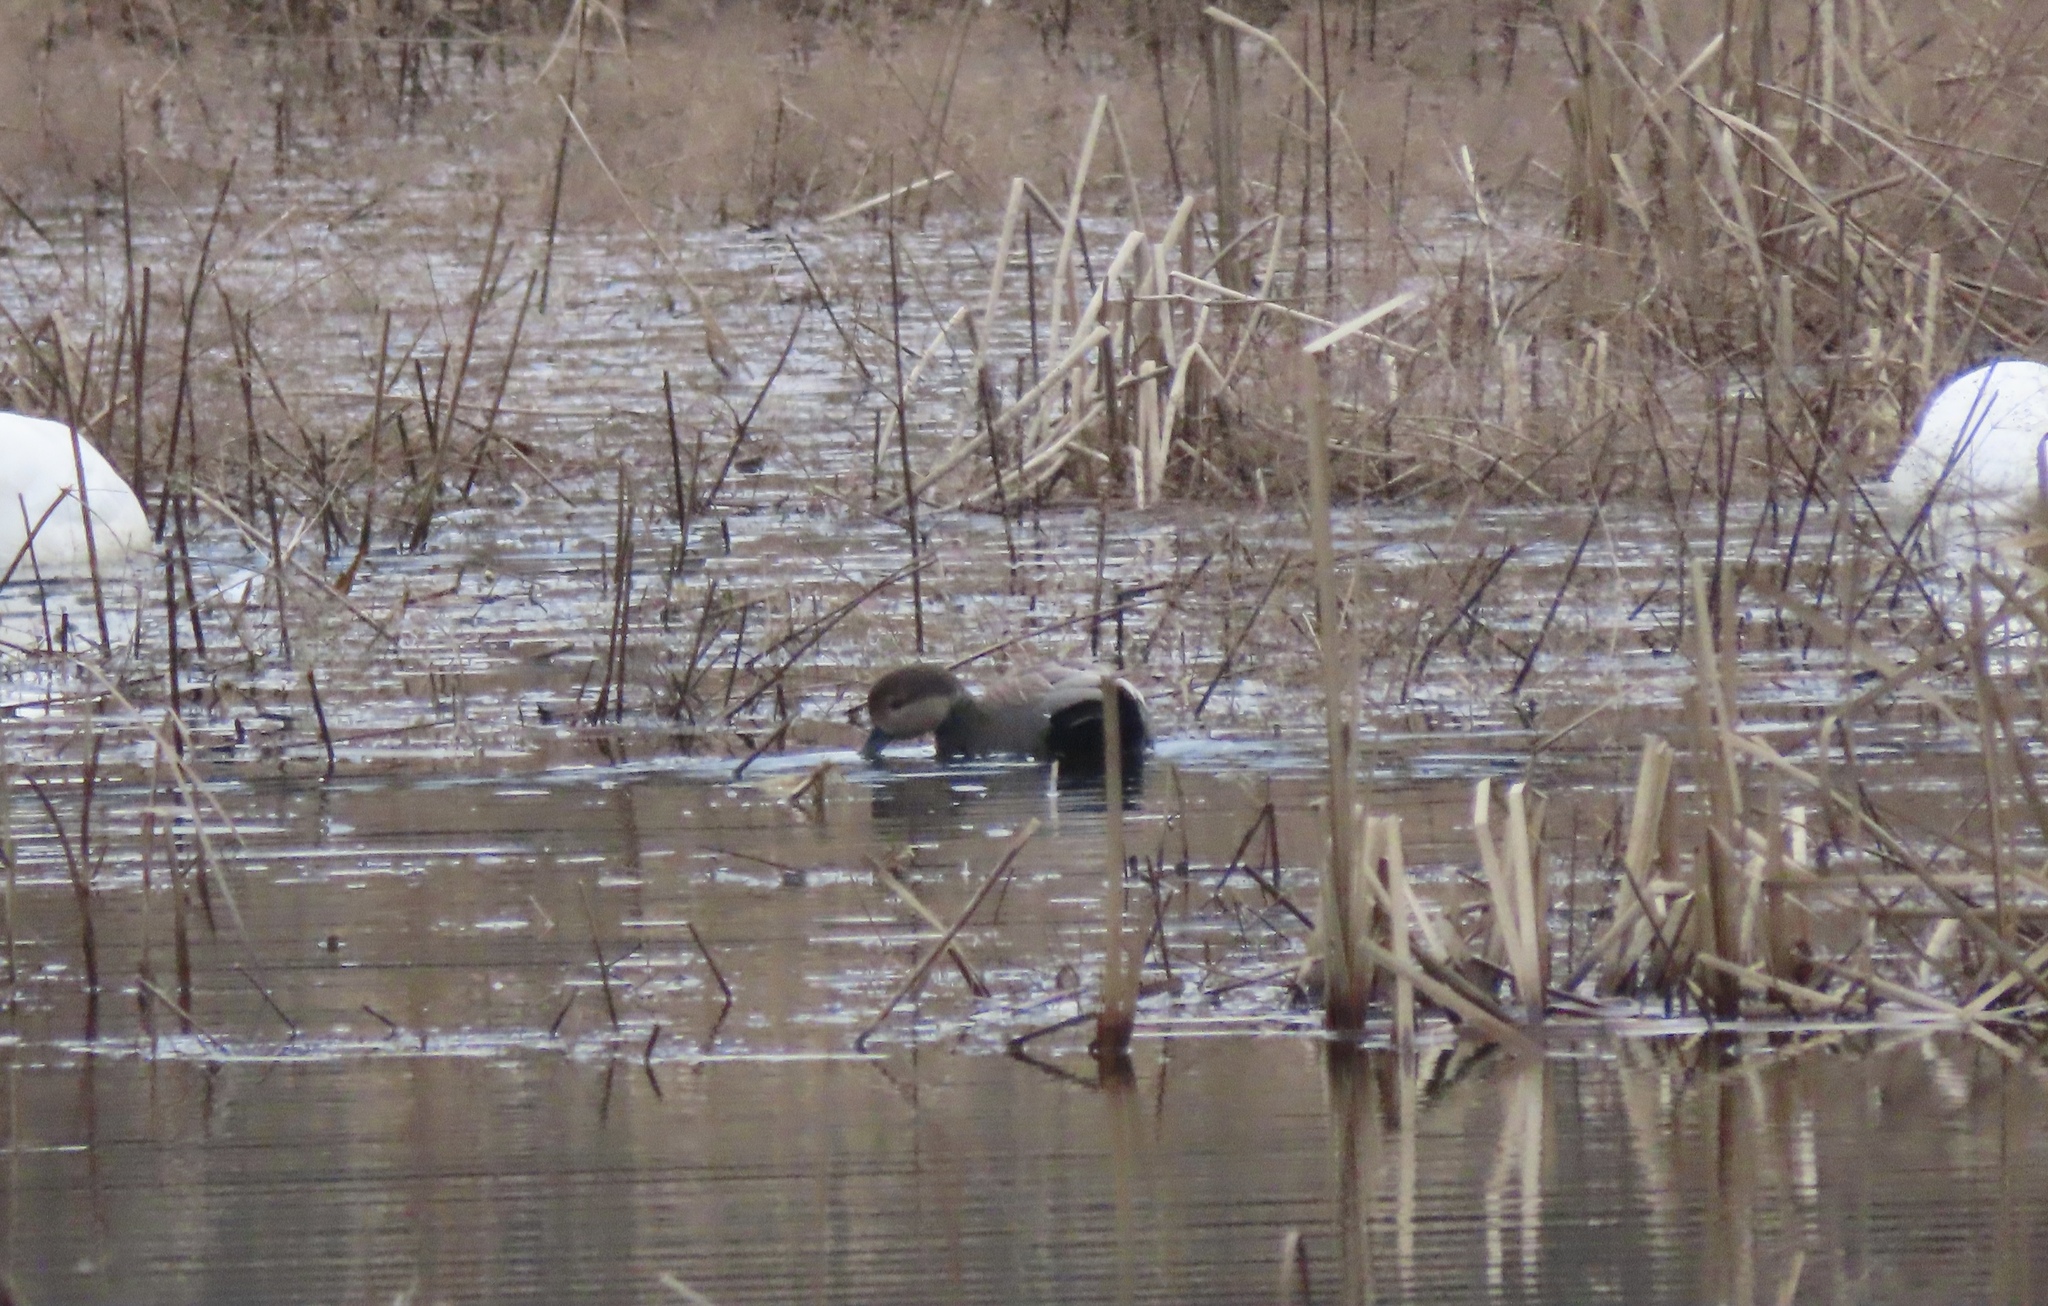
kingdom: Animalia
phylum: Chordata
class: Aves
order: Anseriformes
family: Anatidae
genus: Mareca
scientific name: Mareca strepera
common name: Gadwall
